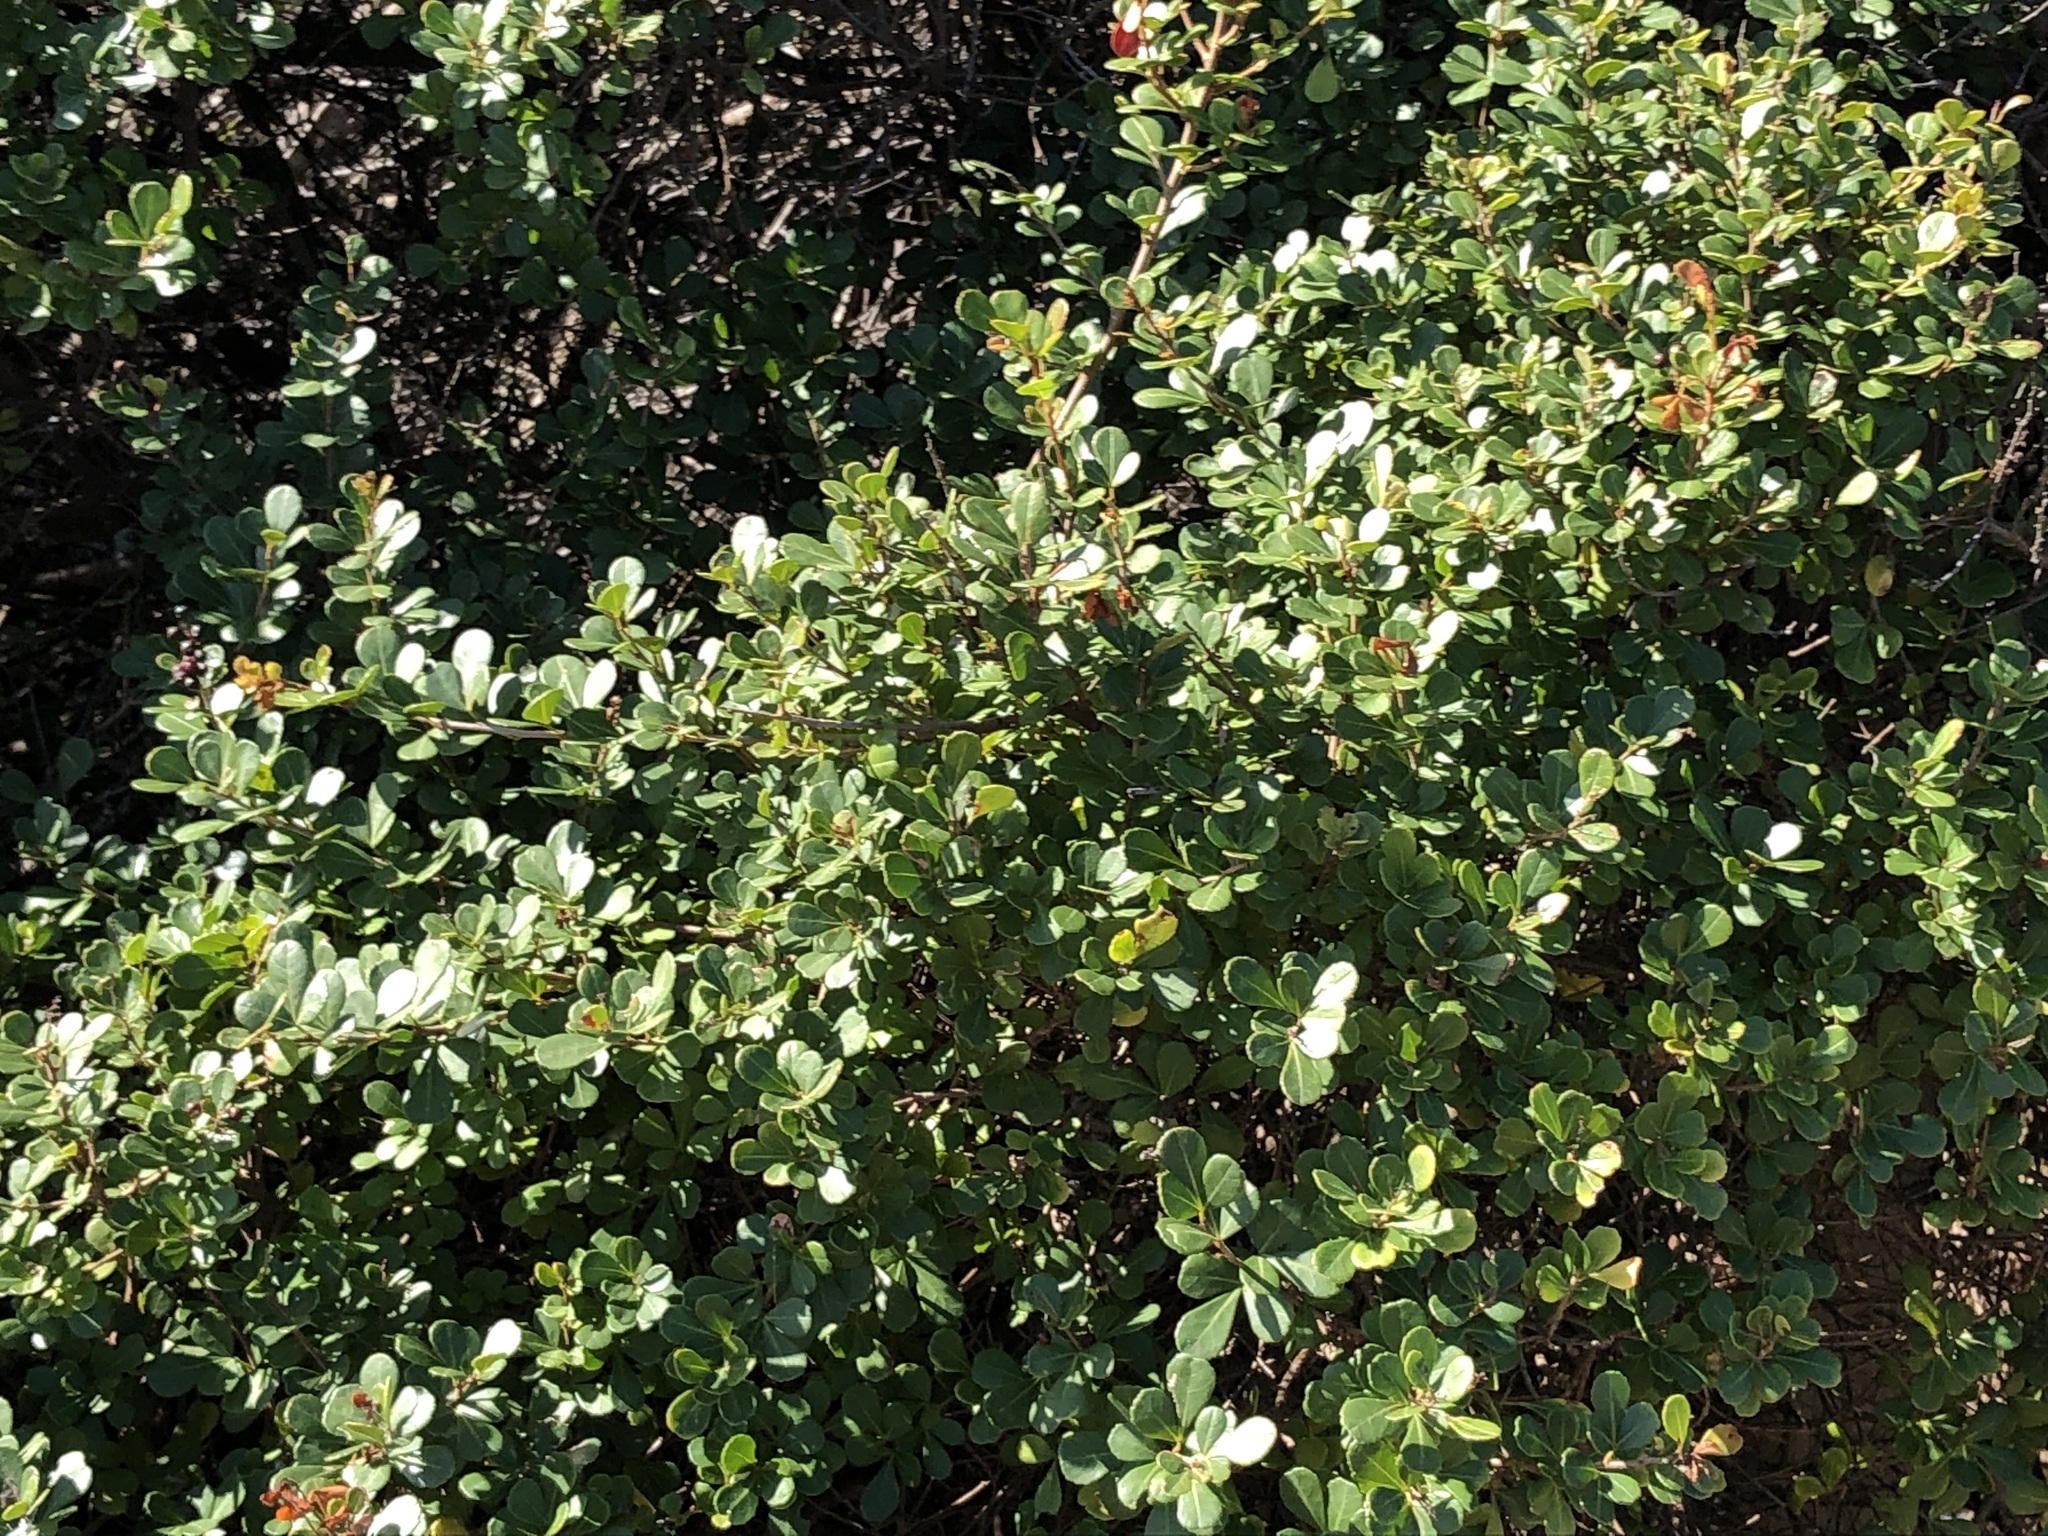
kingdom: Plantae
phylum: Tracheophyta
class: Magnoliopsida
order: Sapindales
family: Anacardiaceae
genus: Searsia
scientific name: Searsia crenata
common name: Crowberry
